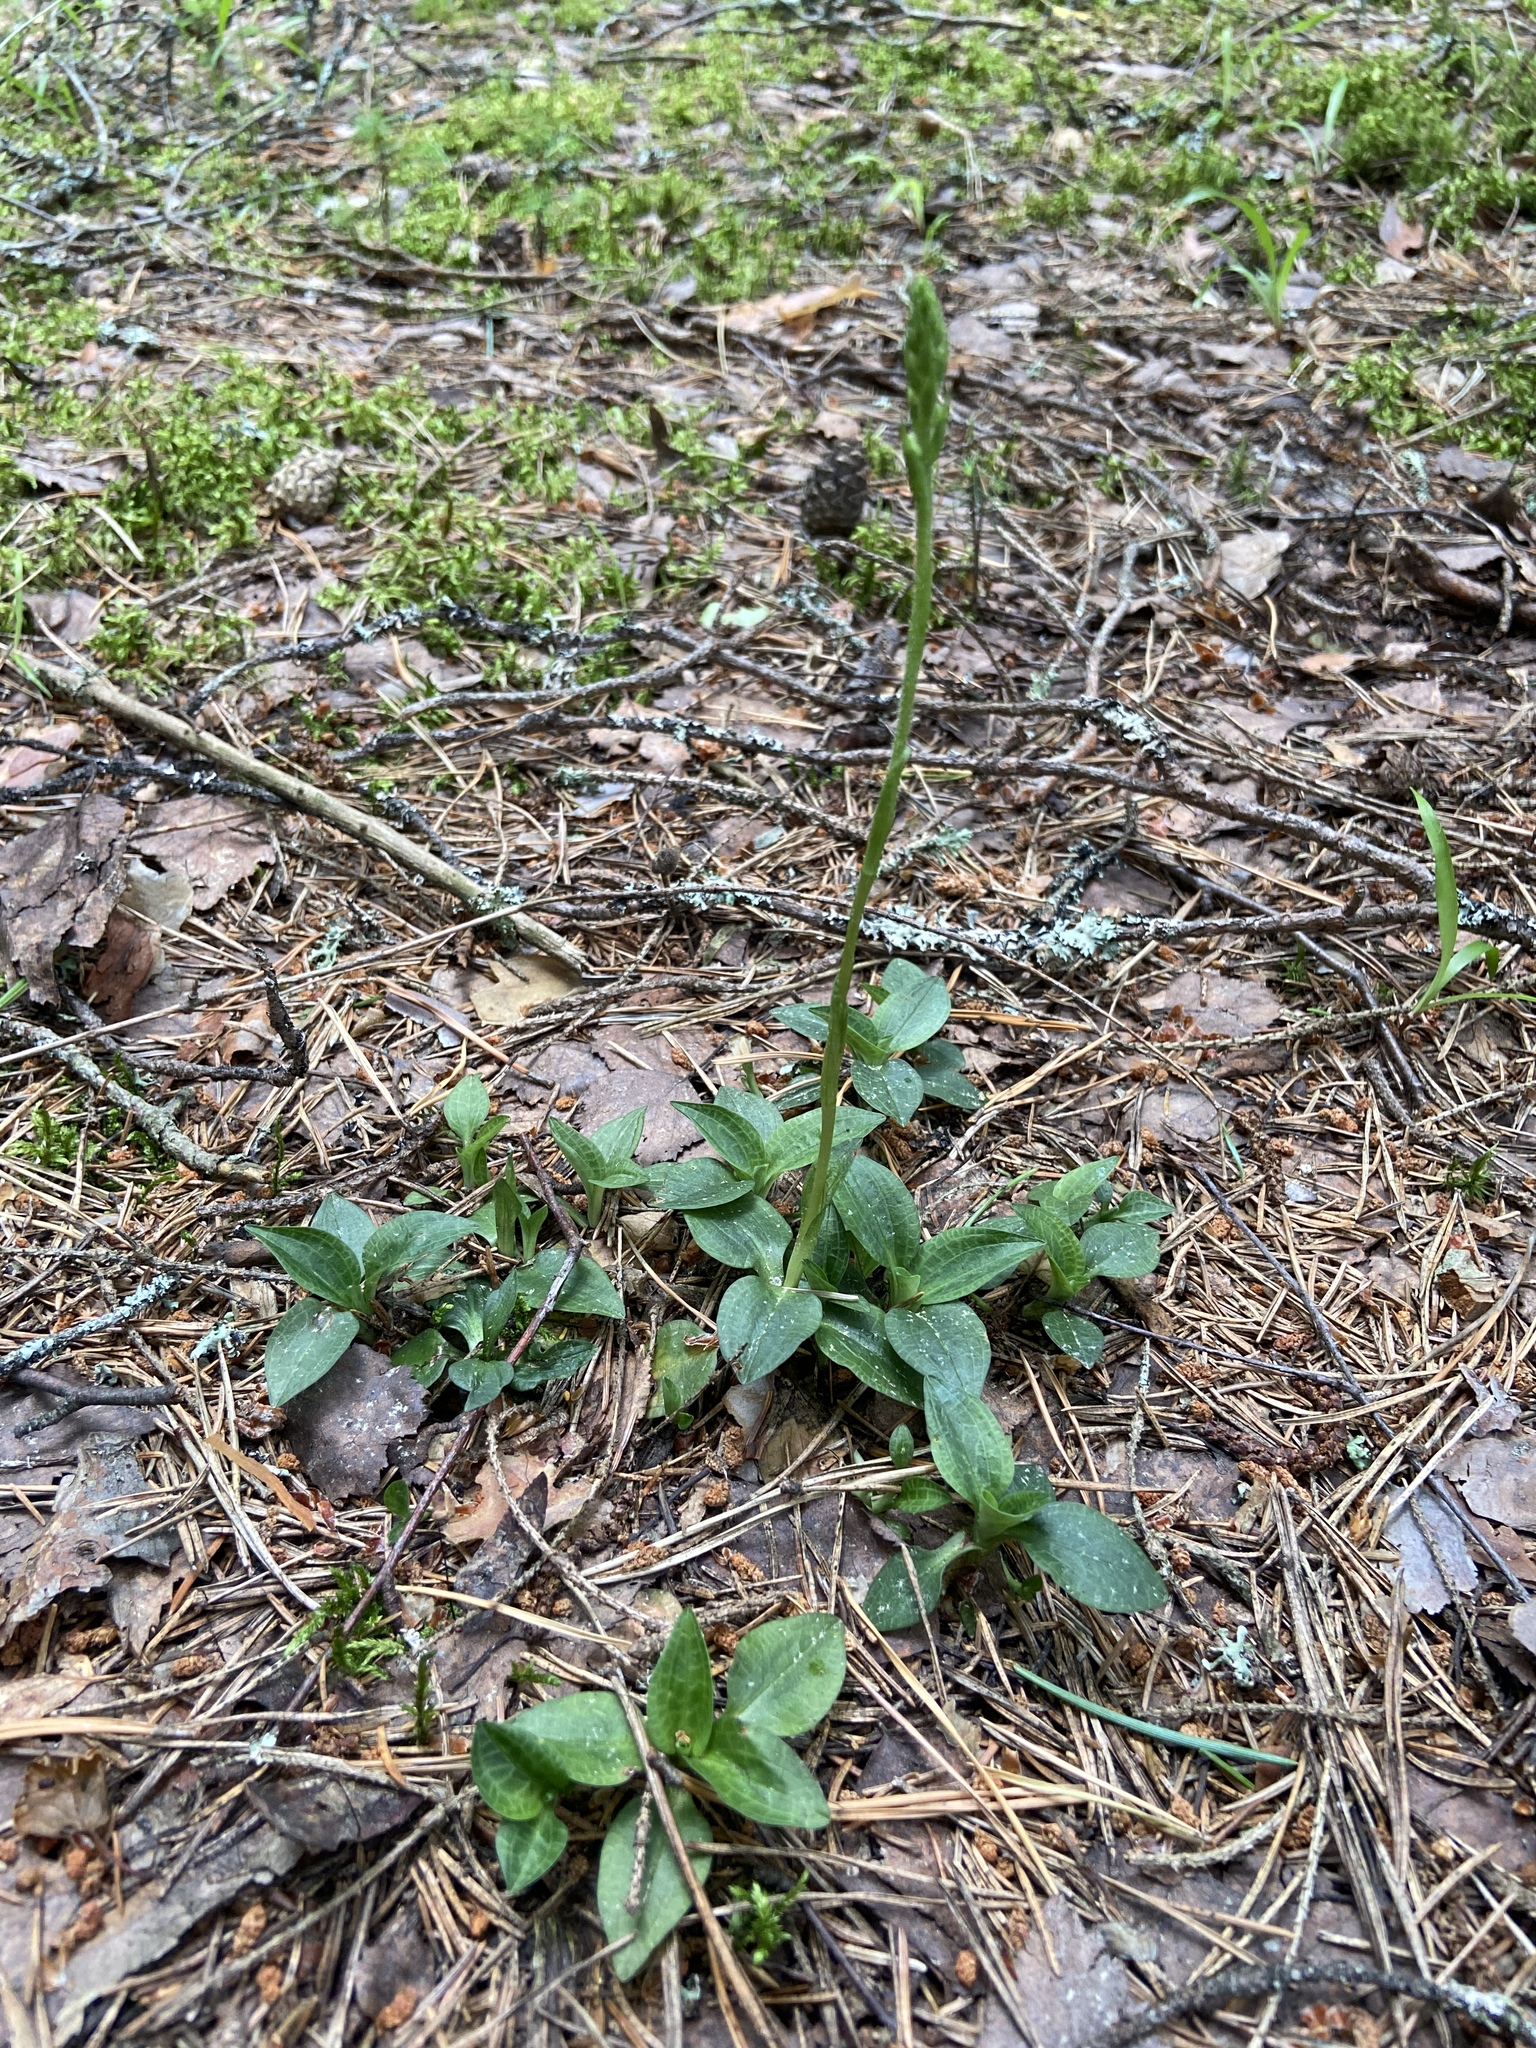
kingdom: Plantae
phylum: Tracheophyta
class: Liliopsida
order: Asparagales
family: Orchidaceae
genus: Goodyera
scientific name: Goodyera repens
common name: Creeping lady's-tresses
